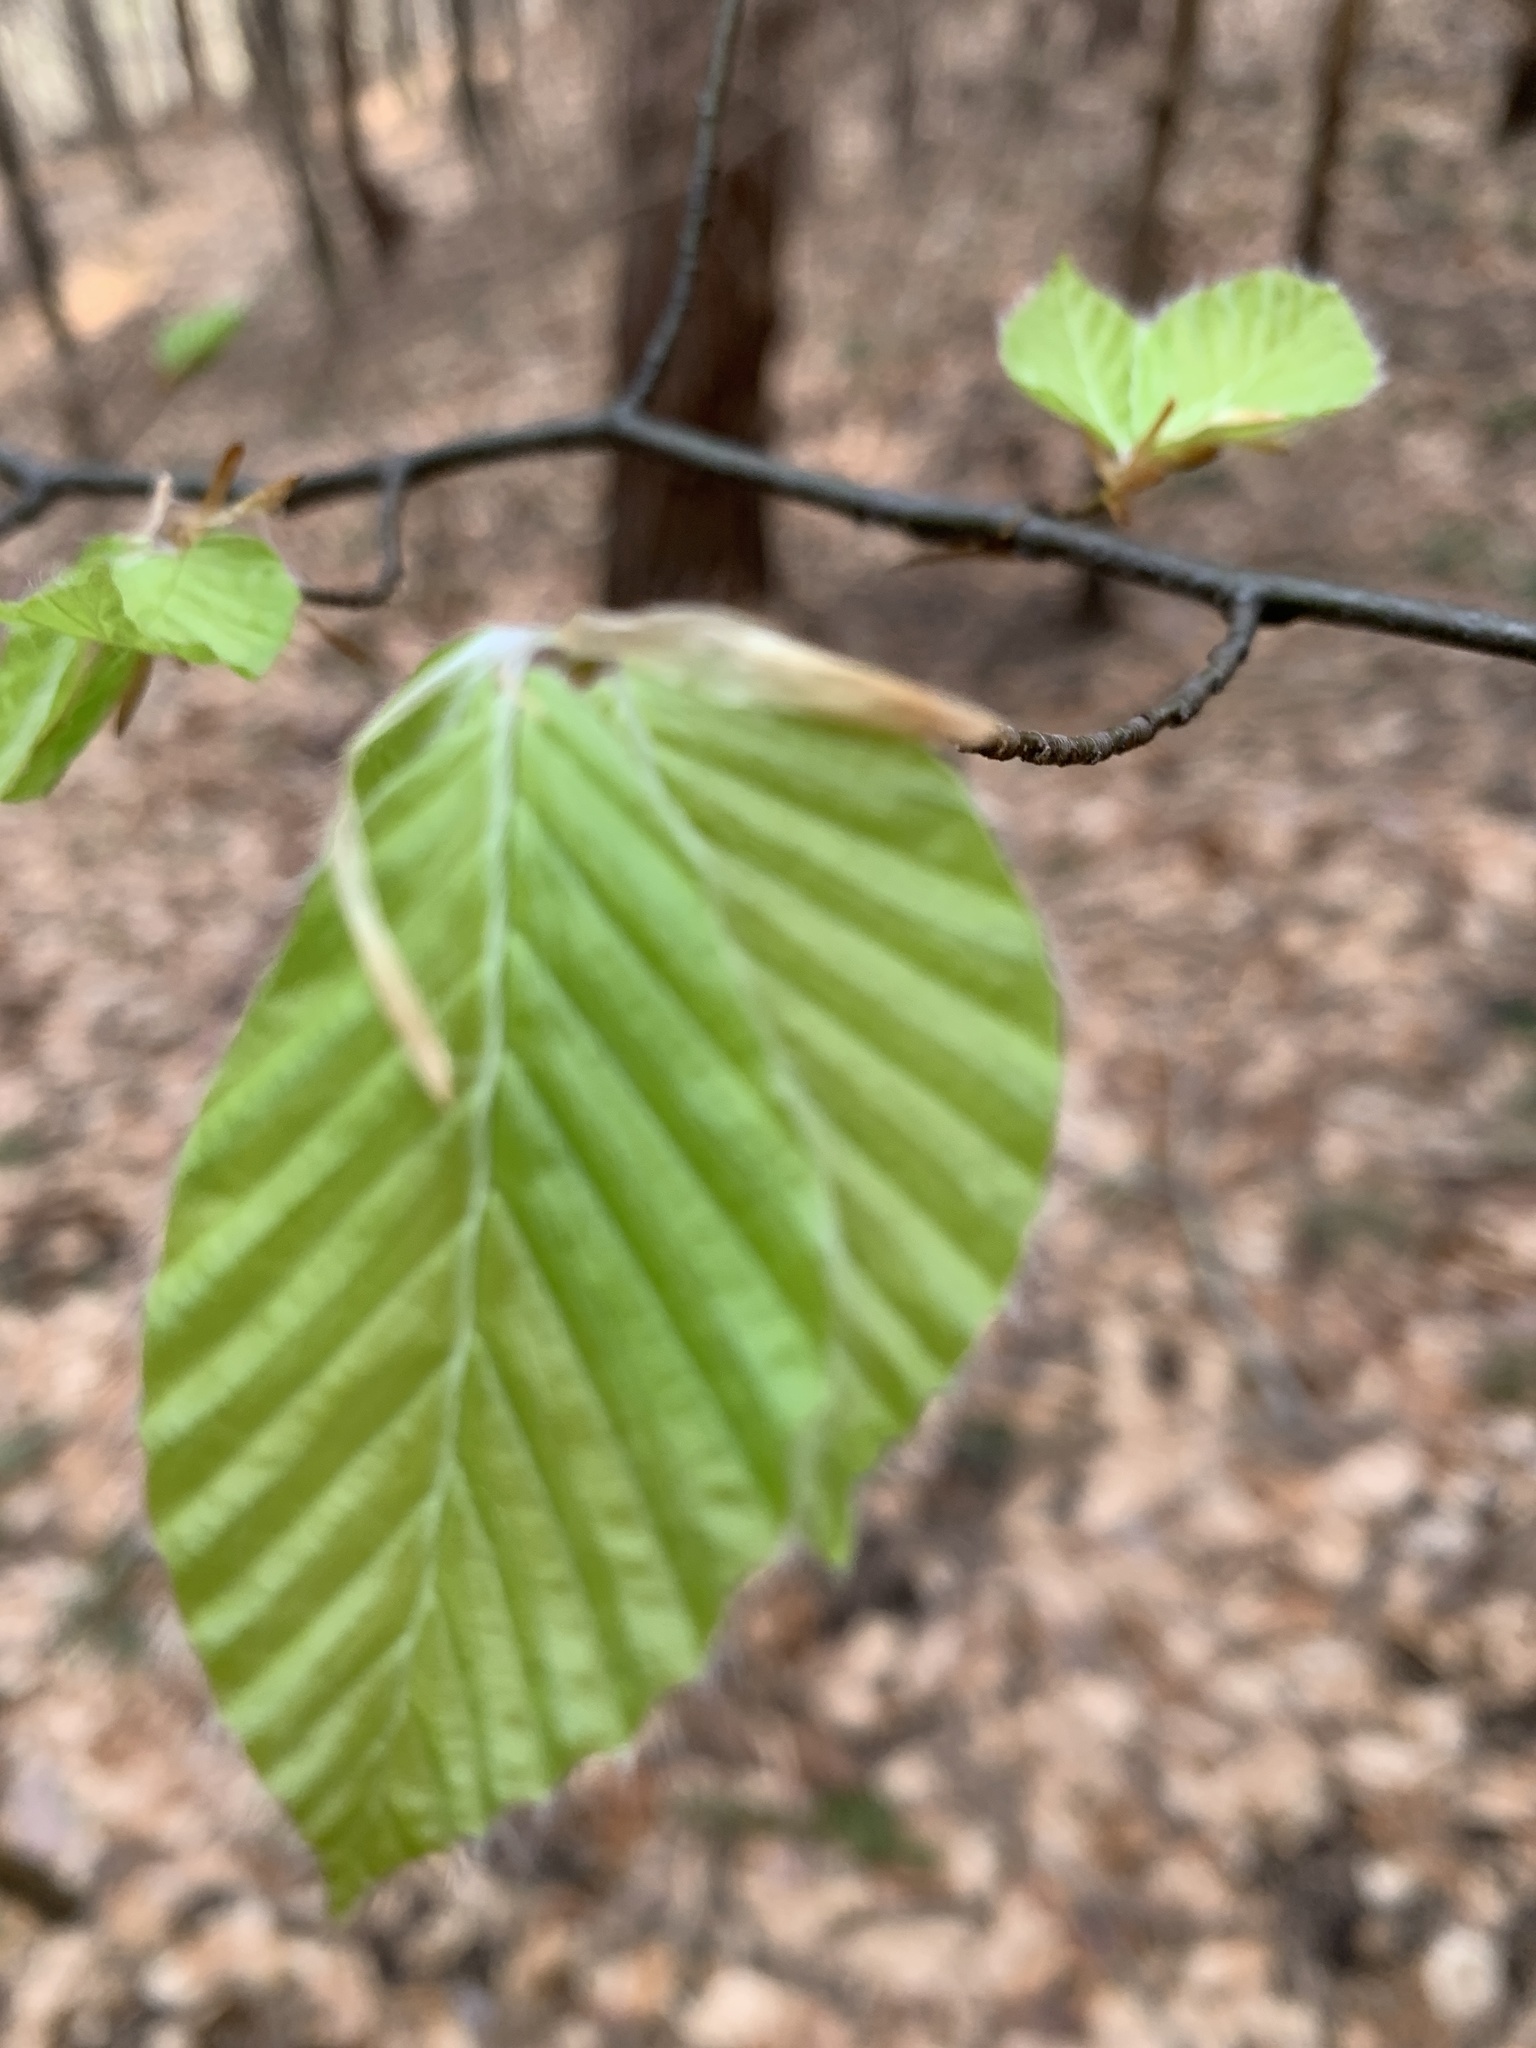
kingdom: Plantae
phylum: Tracheophyta
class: Magnoliopsida
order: Fagales
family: Fagaceae
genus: Fagus
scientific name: Fagus sylvatica
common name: Beech
